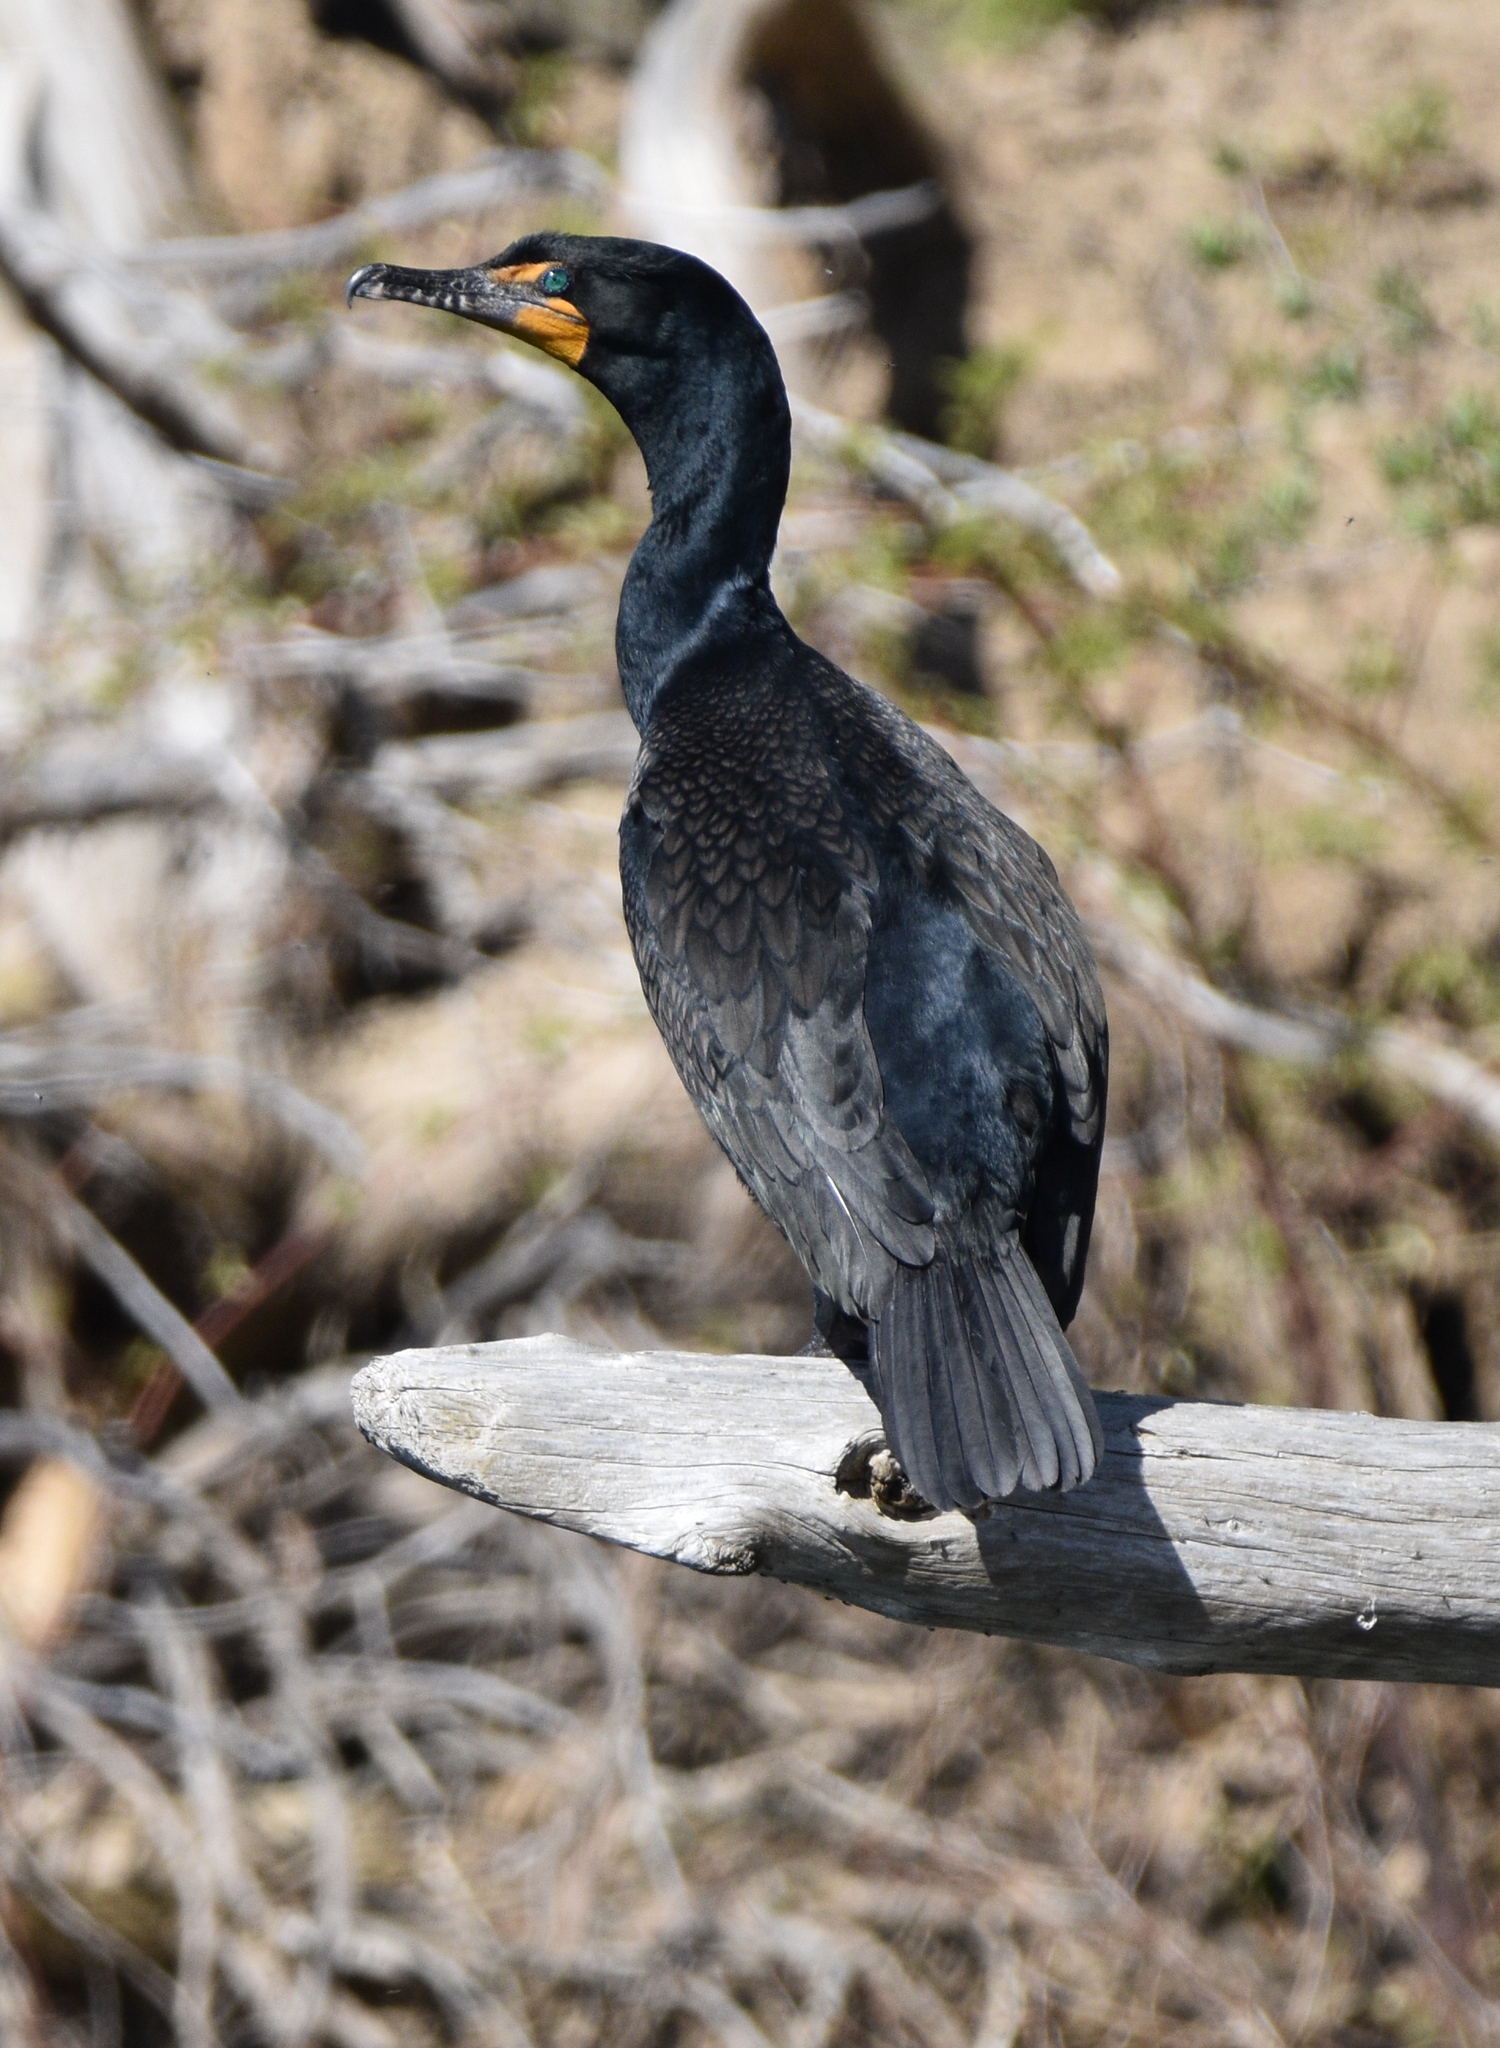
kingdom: Animalia
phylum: Chordata
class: Aves
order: Suliformes
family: Phalacrocoracidae
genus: Phalacrocorax
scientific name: Phalacrocorax auritus
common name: Double-crested cormorant
